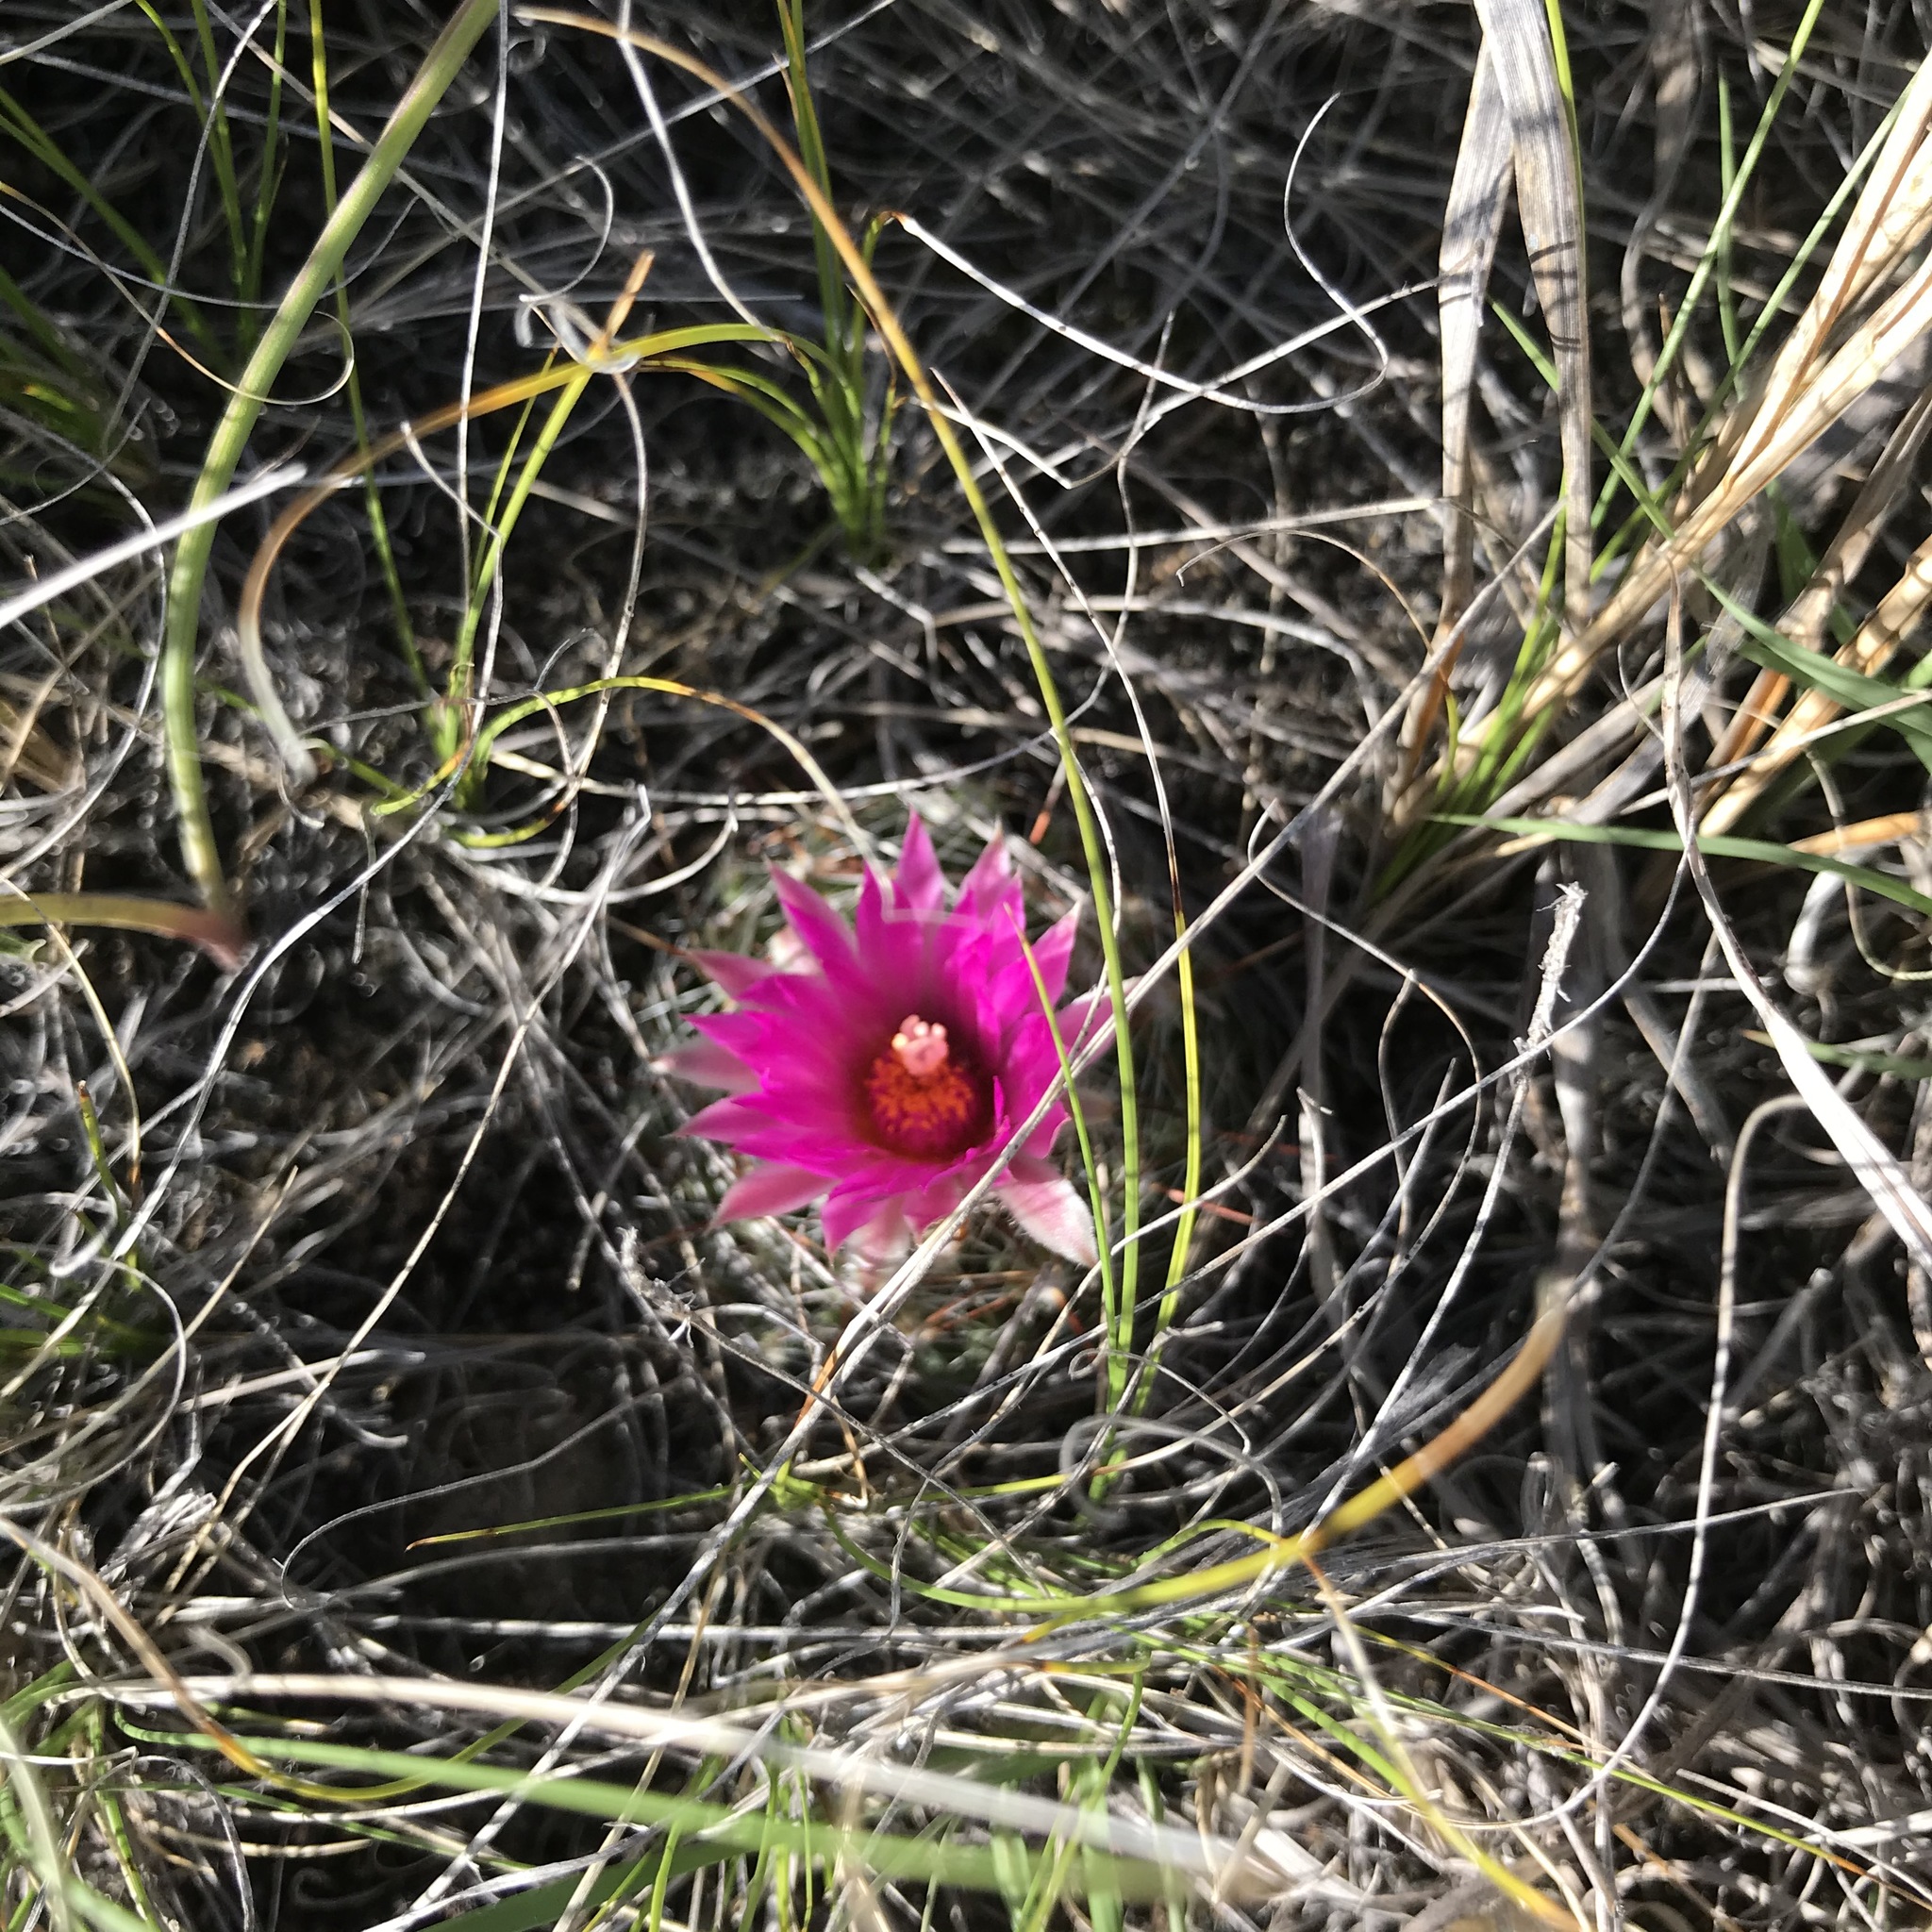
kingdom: Plantae
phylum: Tracheophyta
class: Magnoliopsida
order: Caryophyllales
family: Cactaceae
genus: Pelecyphora
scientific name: Pelecyphora vivipara
